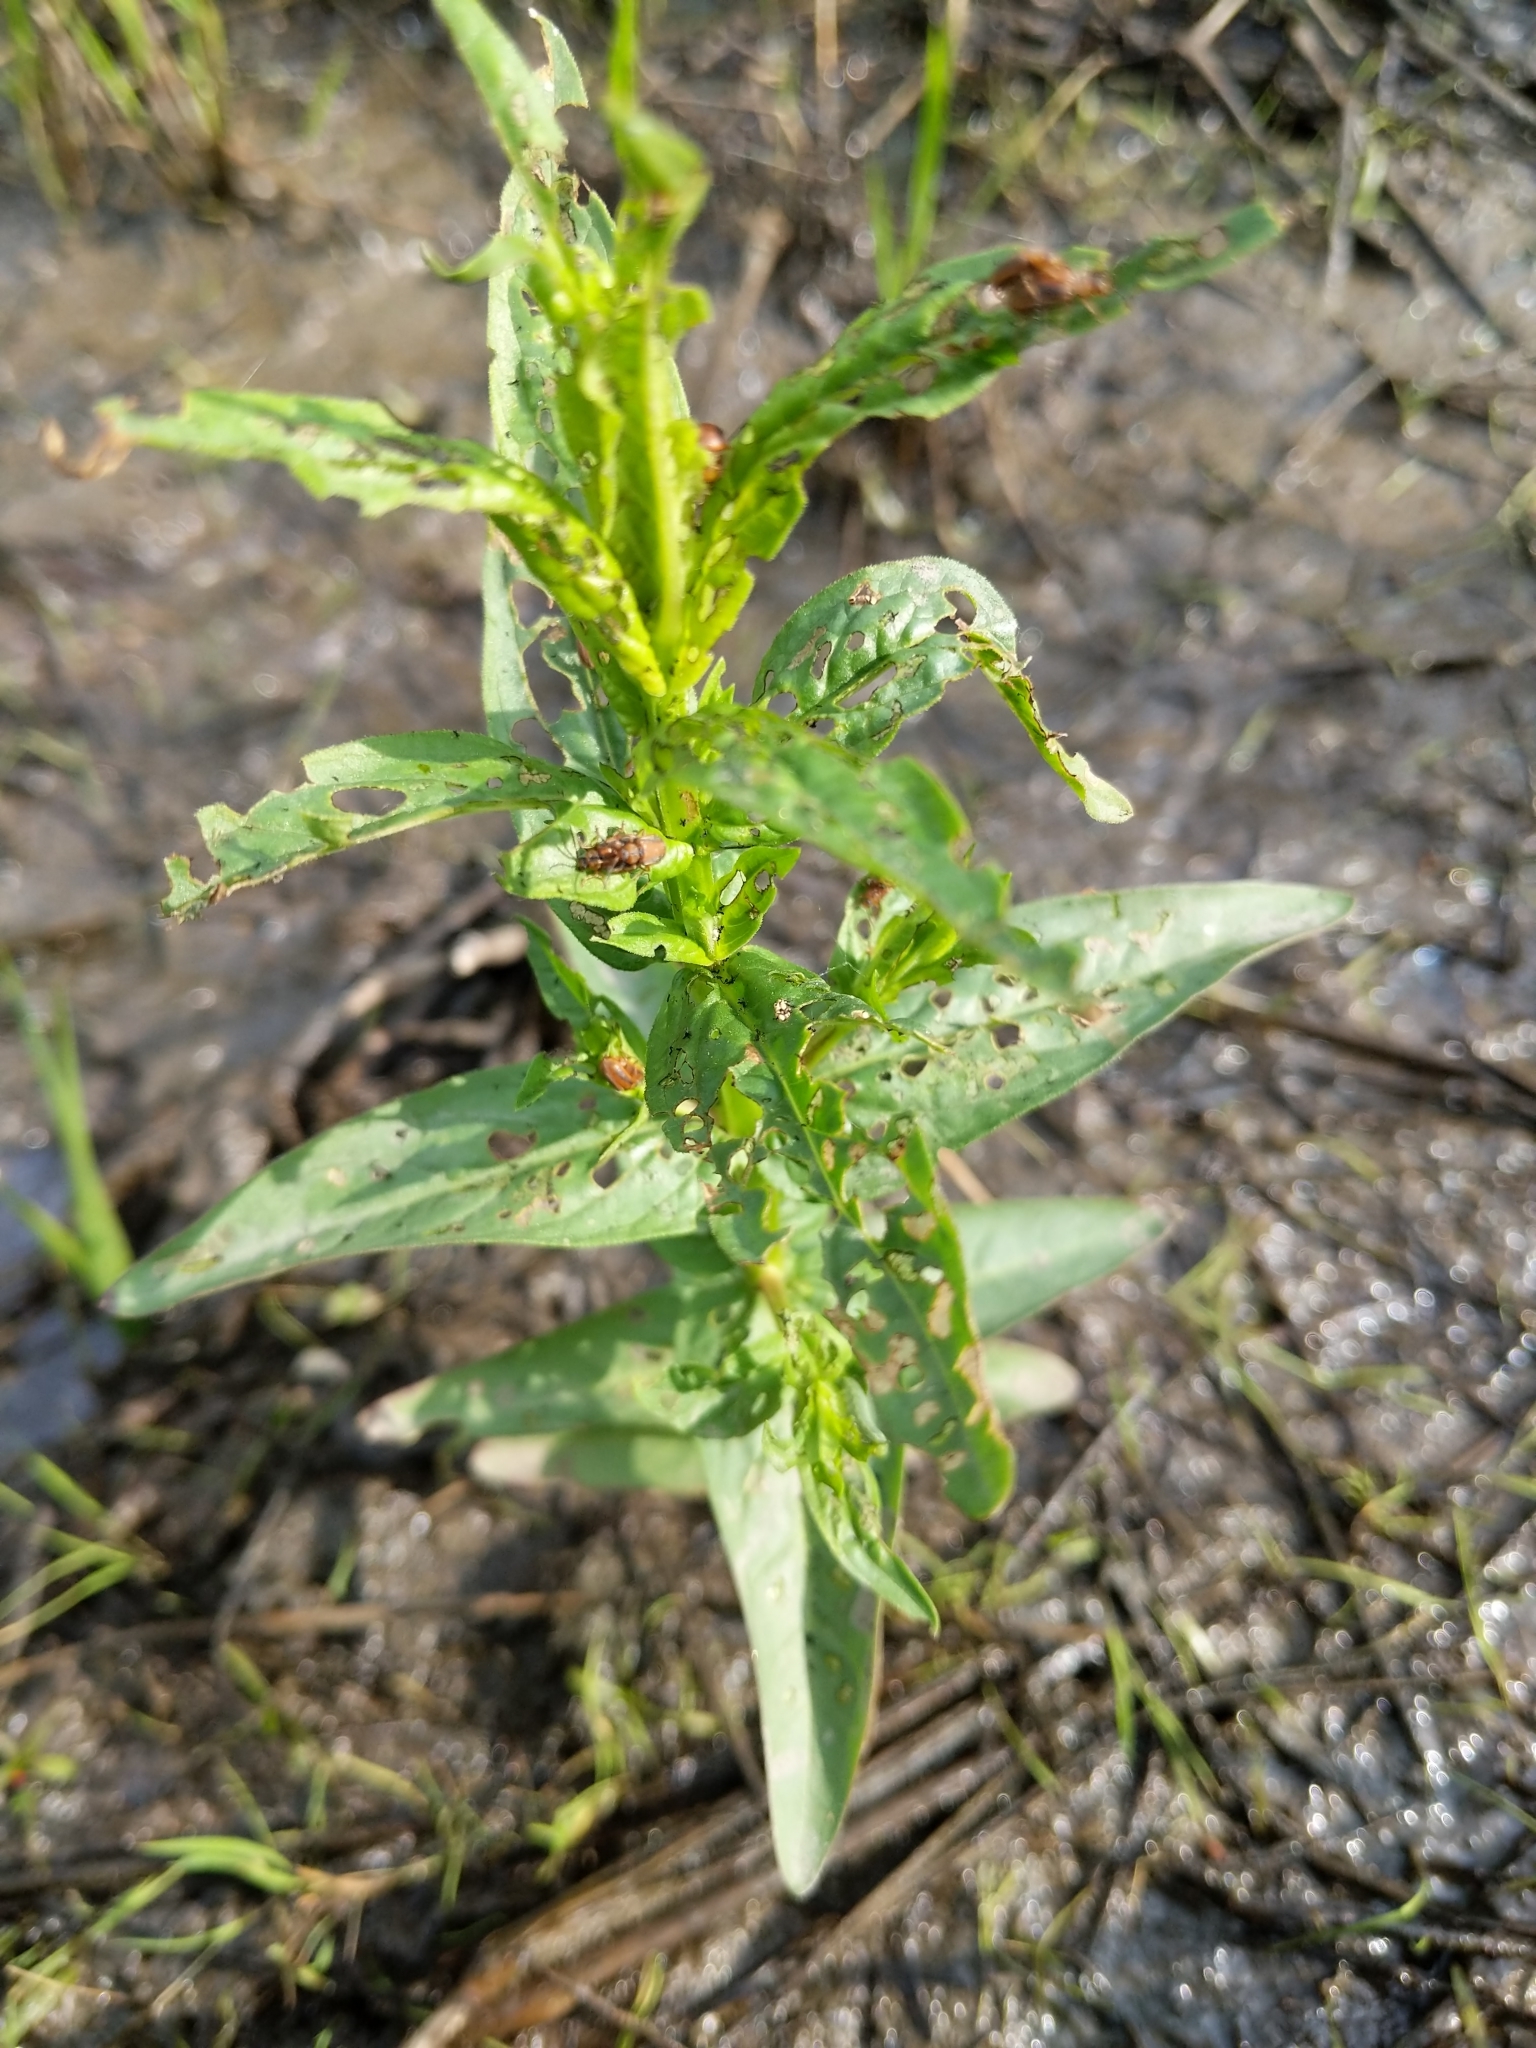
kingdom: Animalia
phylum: Arthropoda
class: Insecta
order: Coleoptera
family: Chrysomelidae
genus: Neogalerucella
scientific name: Neogalerucella calmariensis
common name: Black-margined loosestrife beetle
